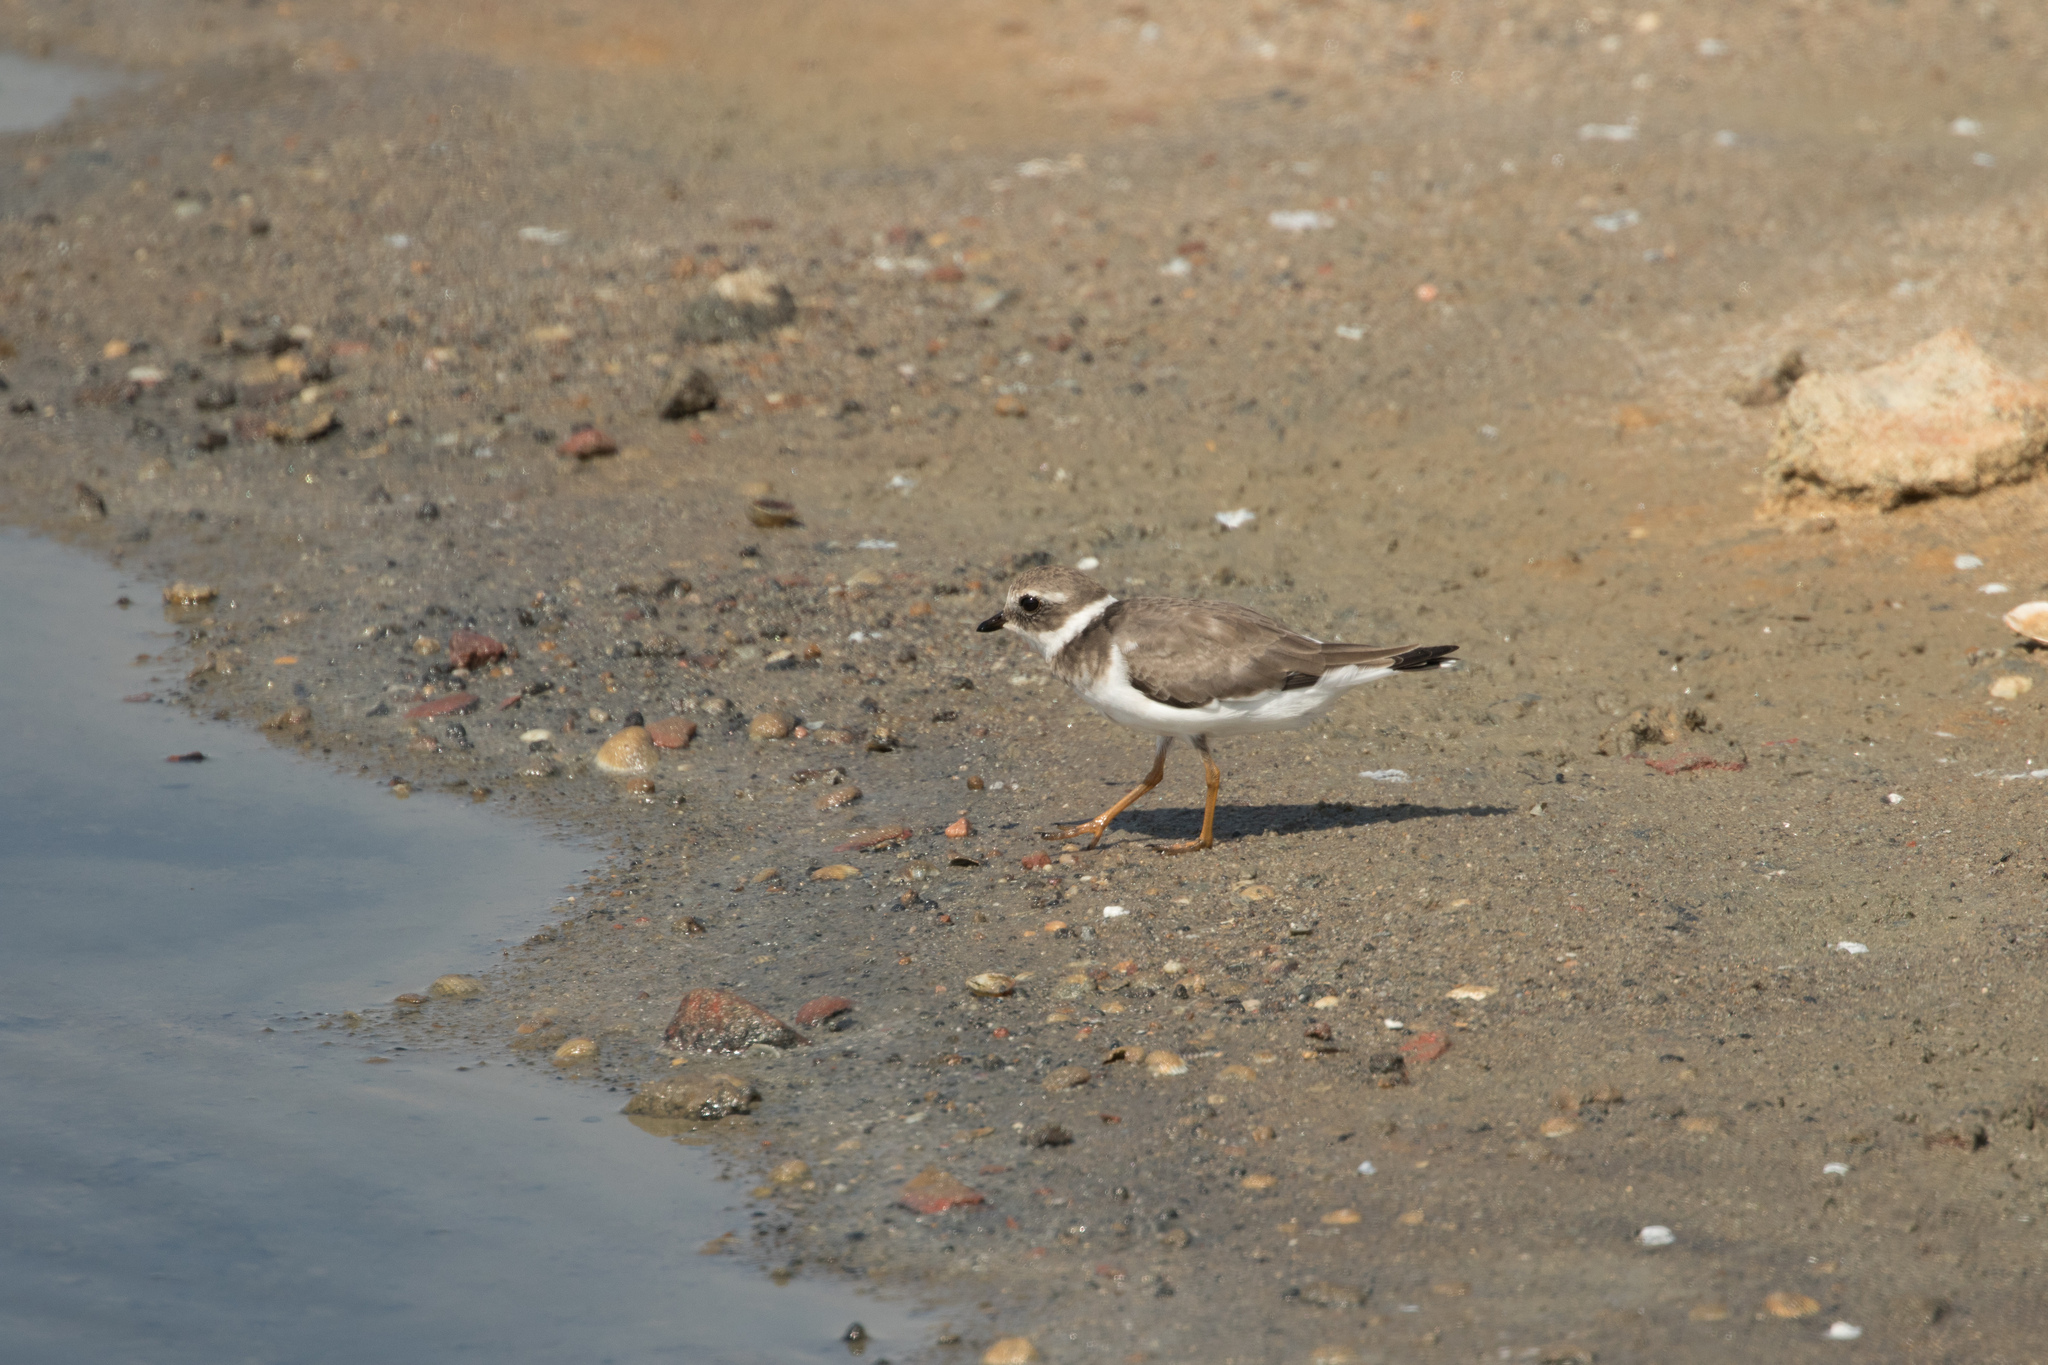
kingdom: Animalia
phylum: Chordata
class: Aves
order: Charadriiformes
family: Charadriidae
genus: Charadrius
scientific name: Charadrius hiaticula
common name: Common ringed plover
